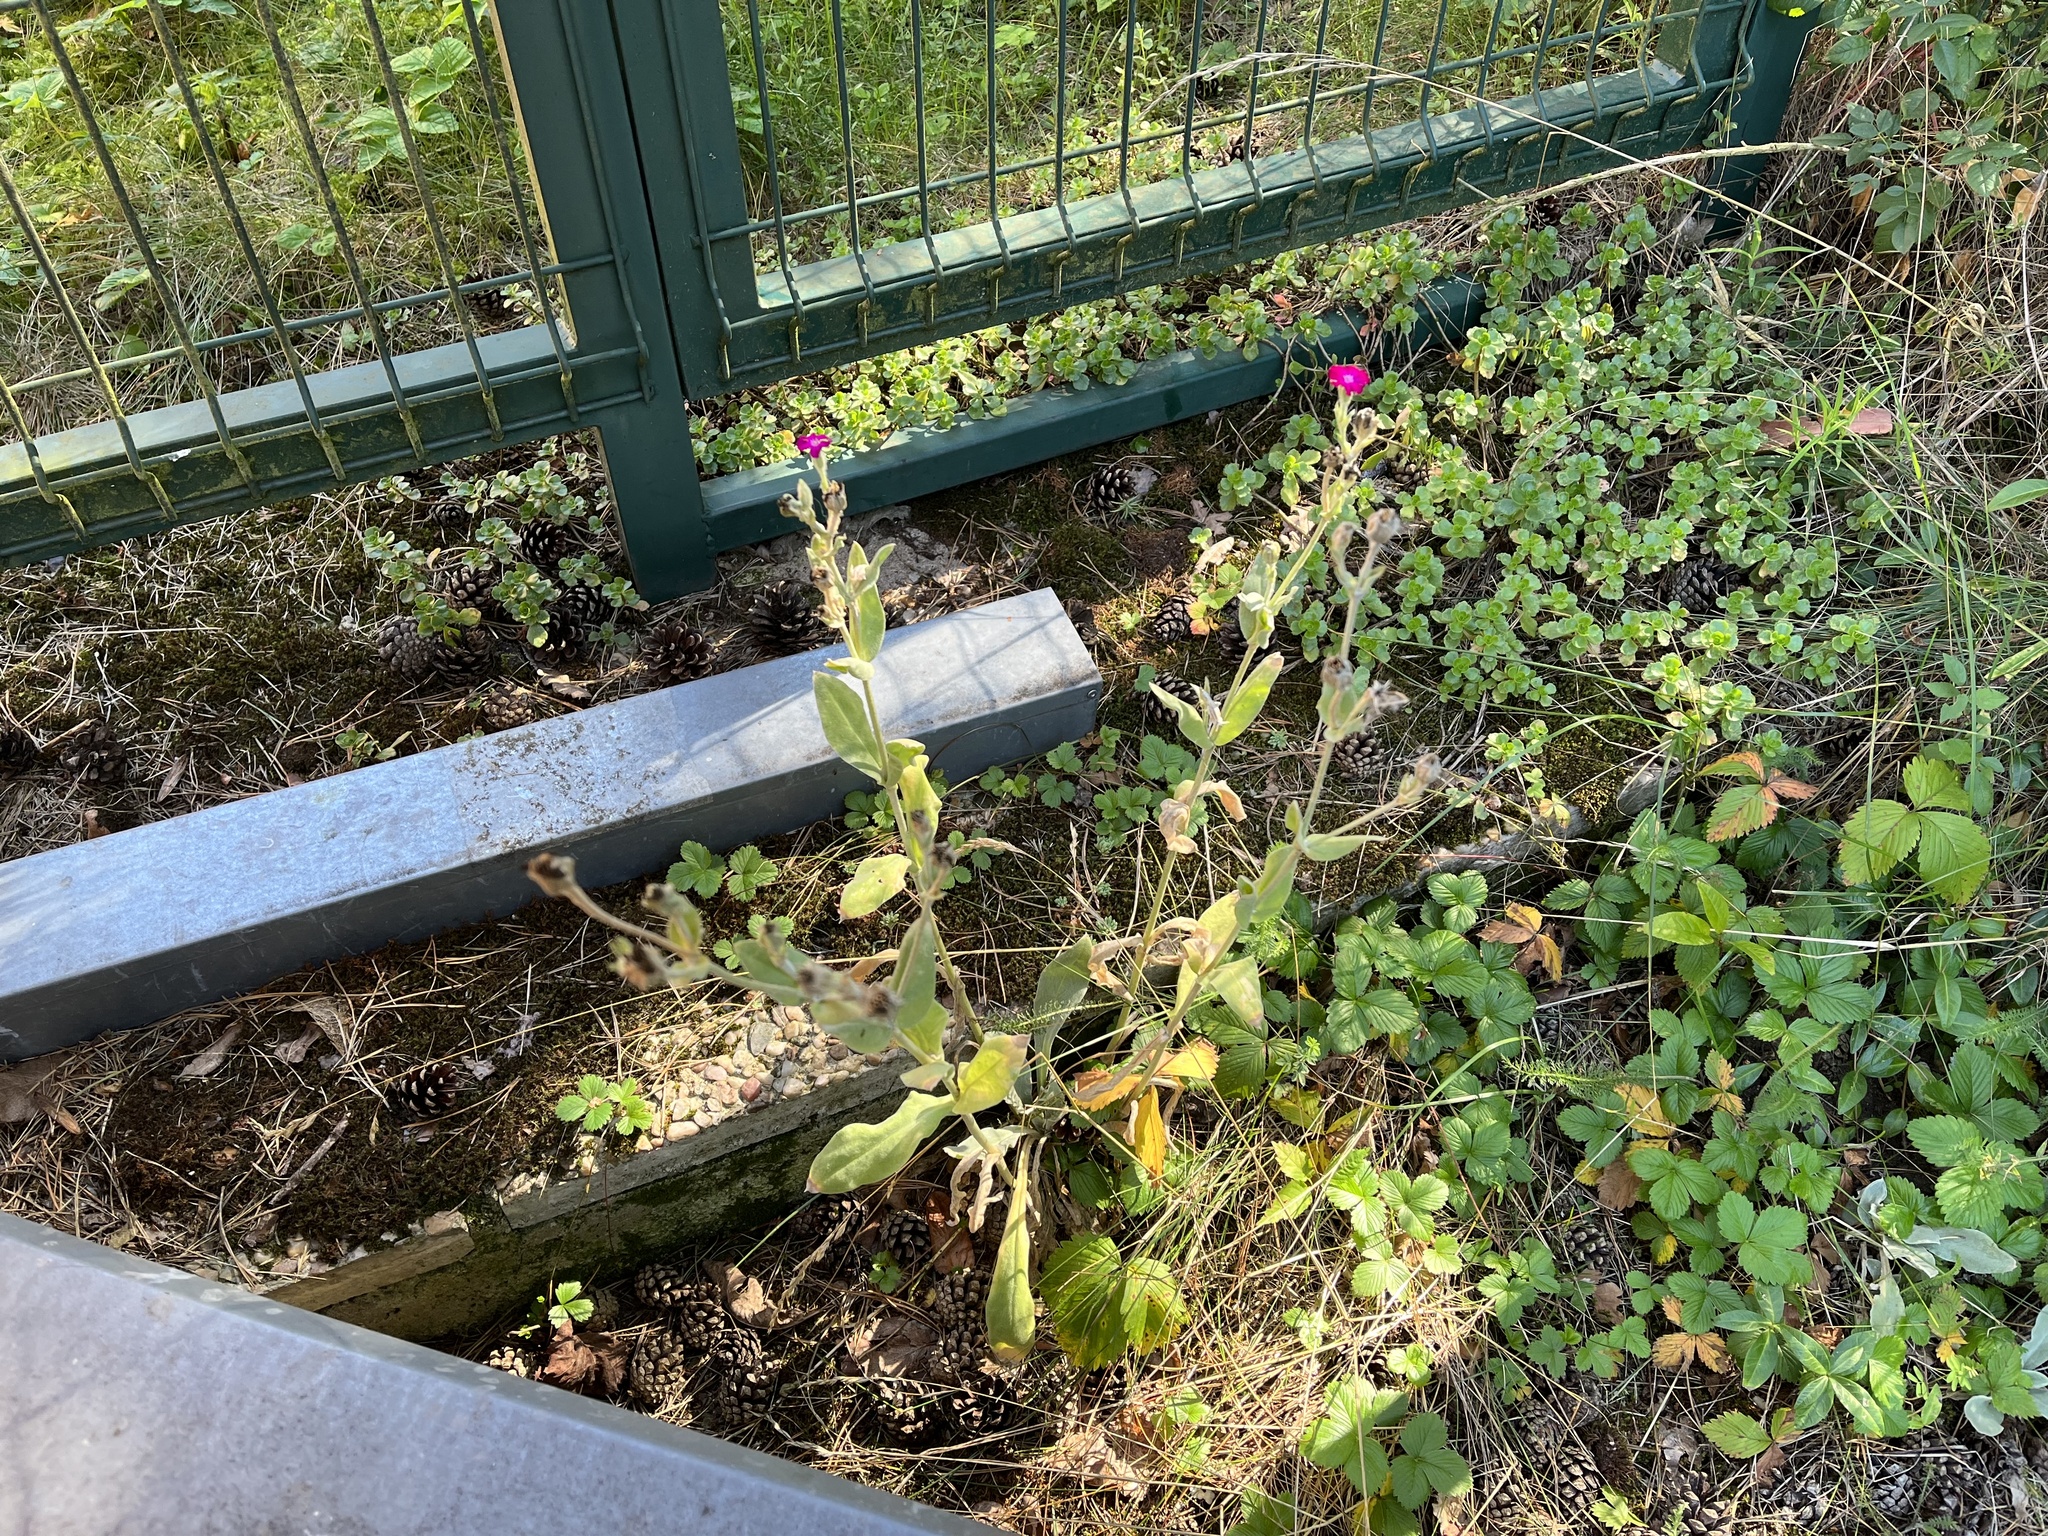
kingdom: Plantae
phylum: Tracheophyta
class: Magnoliopsida
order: Caryophyllales
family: Caryophyllaceae
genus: Silene
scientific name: Silene coronaria
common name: Rose campion
